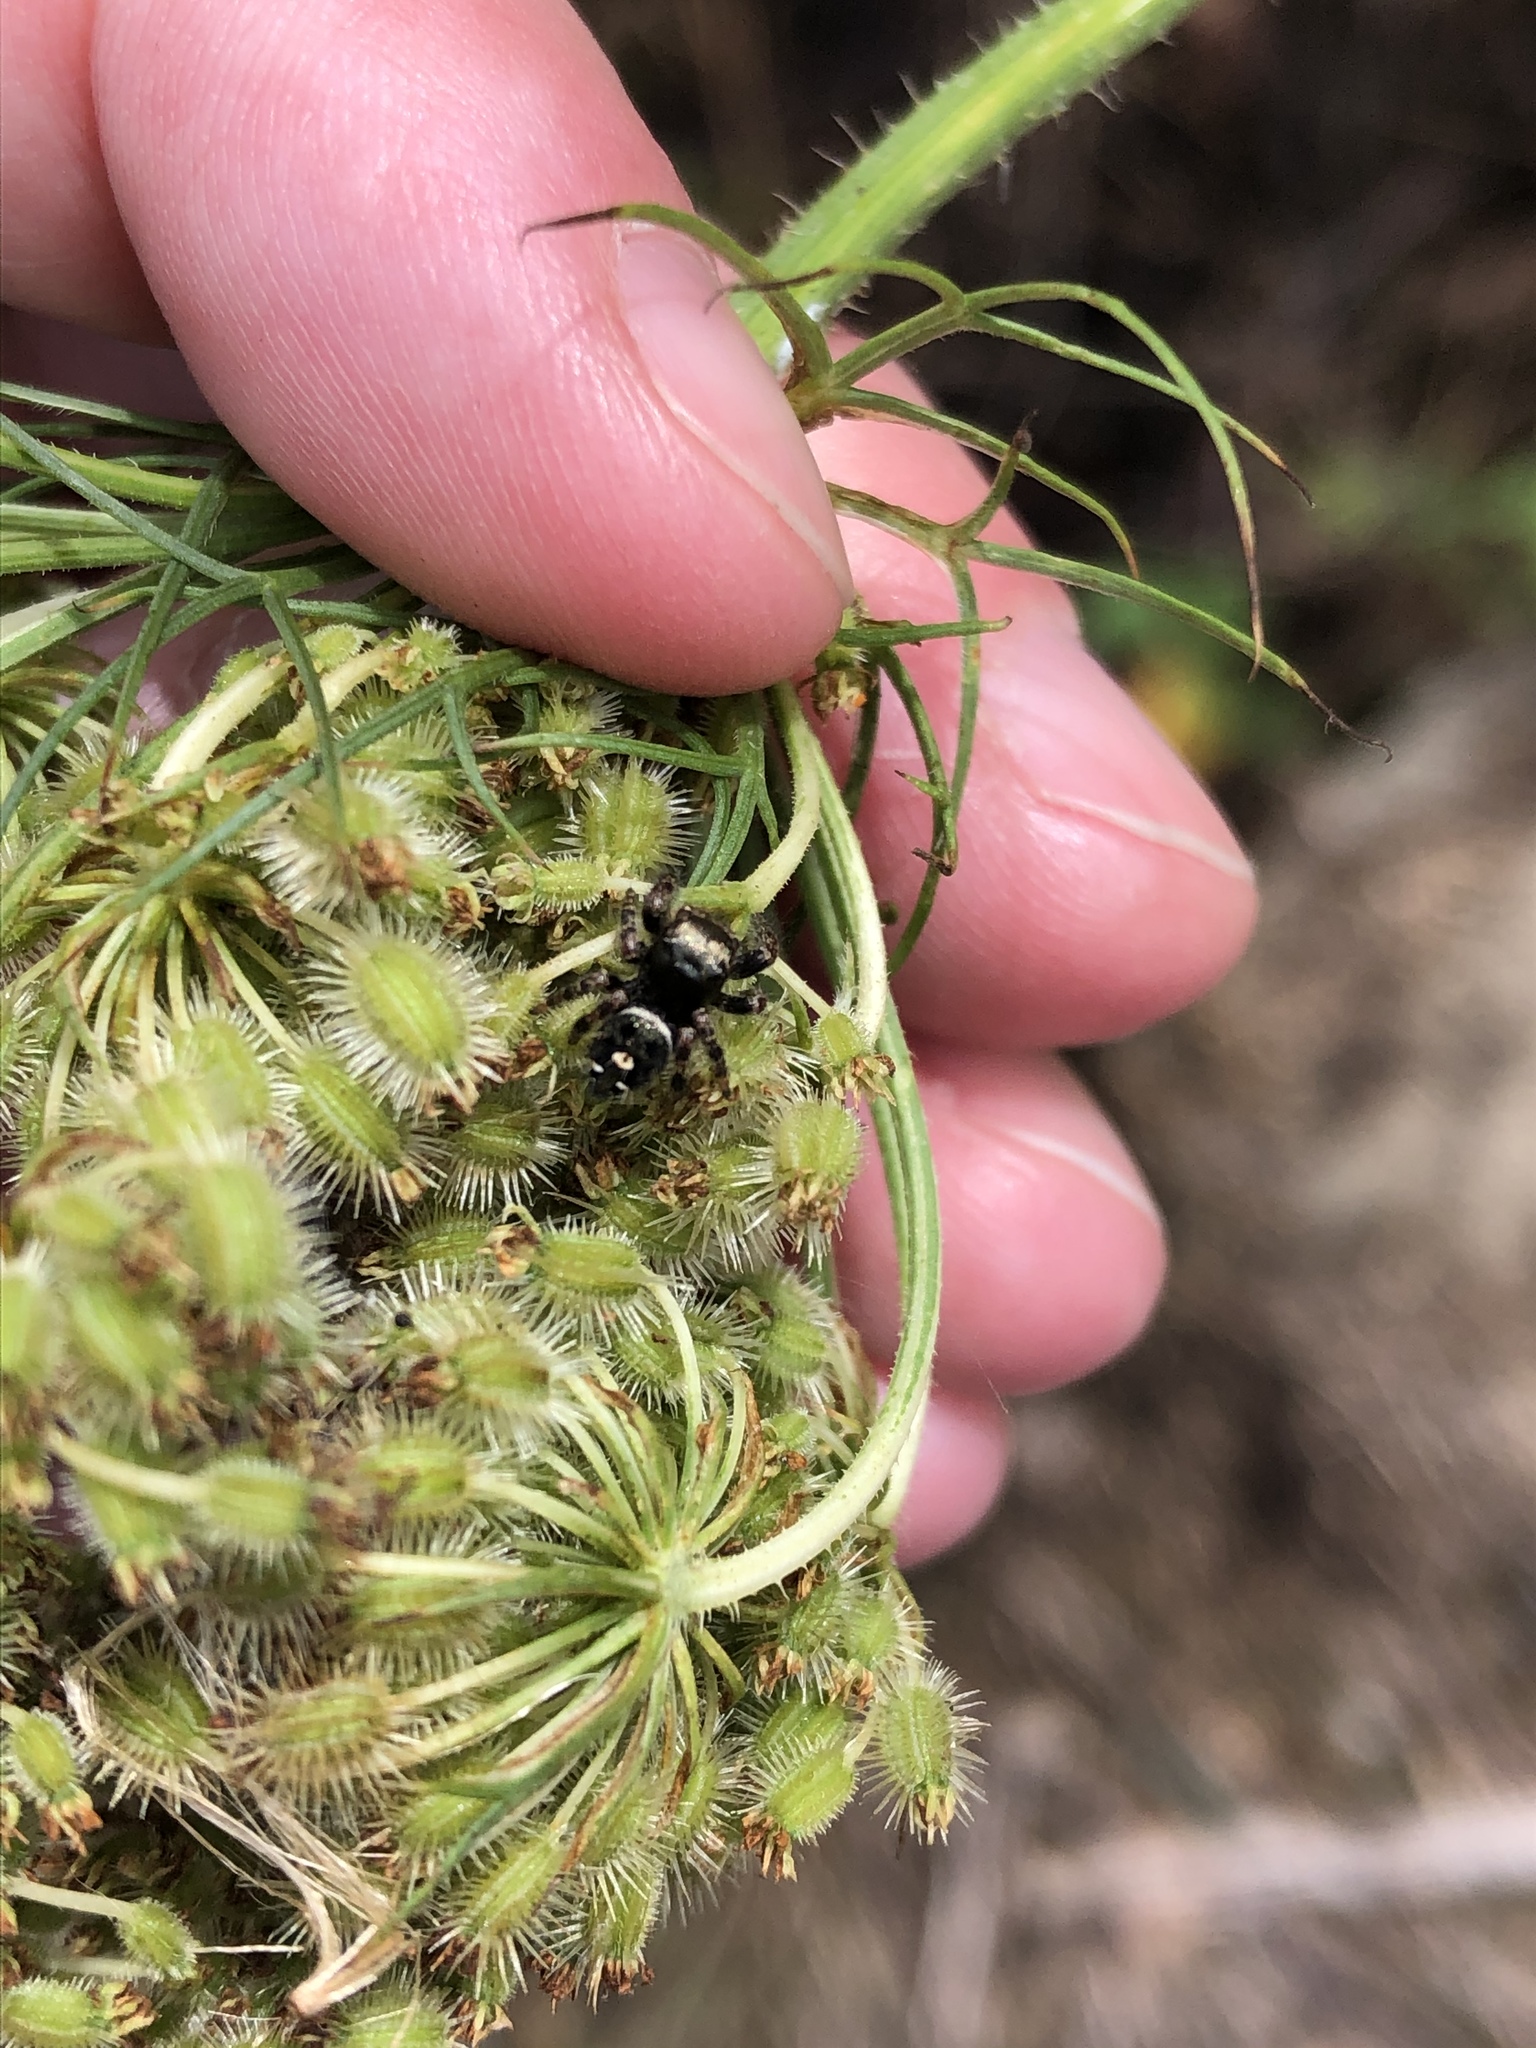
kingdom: Animalia
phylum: Arthropoda
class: Arachnida
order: Araneae
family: Salticidae
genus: Phidippus
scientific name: Phidippus audax
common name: Bold jumper
